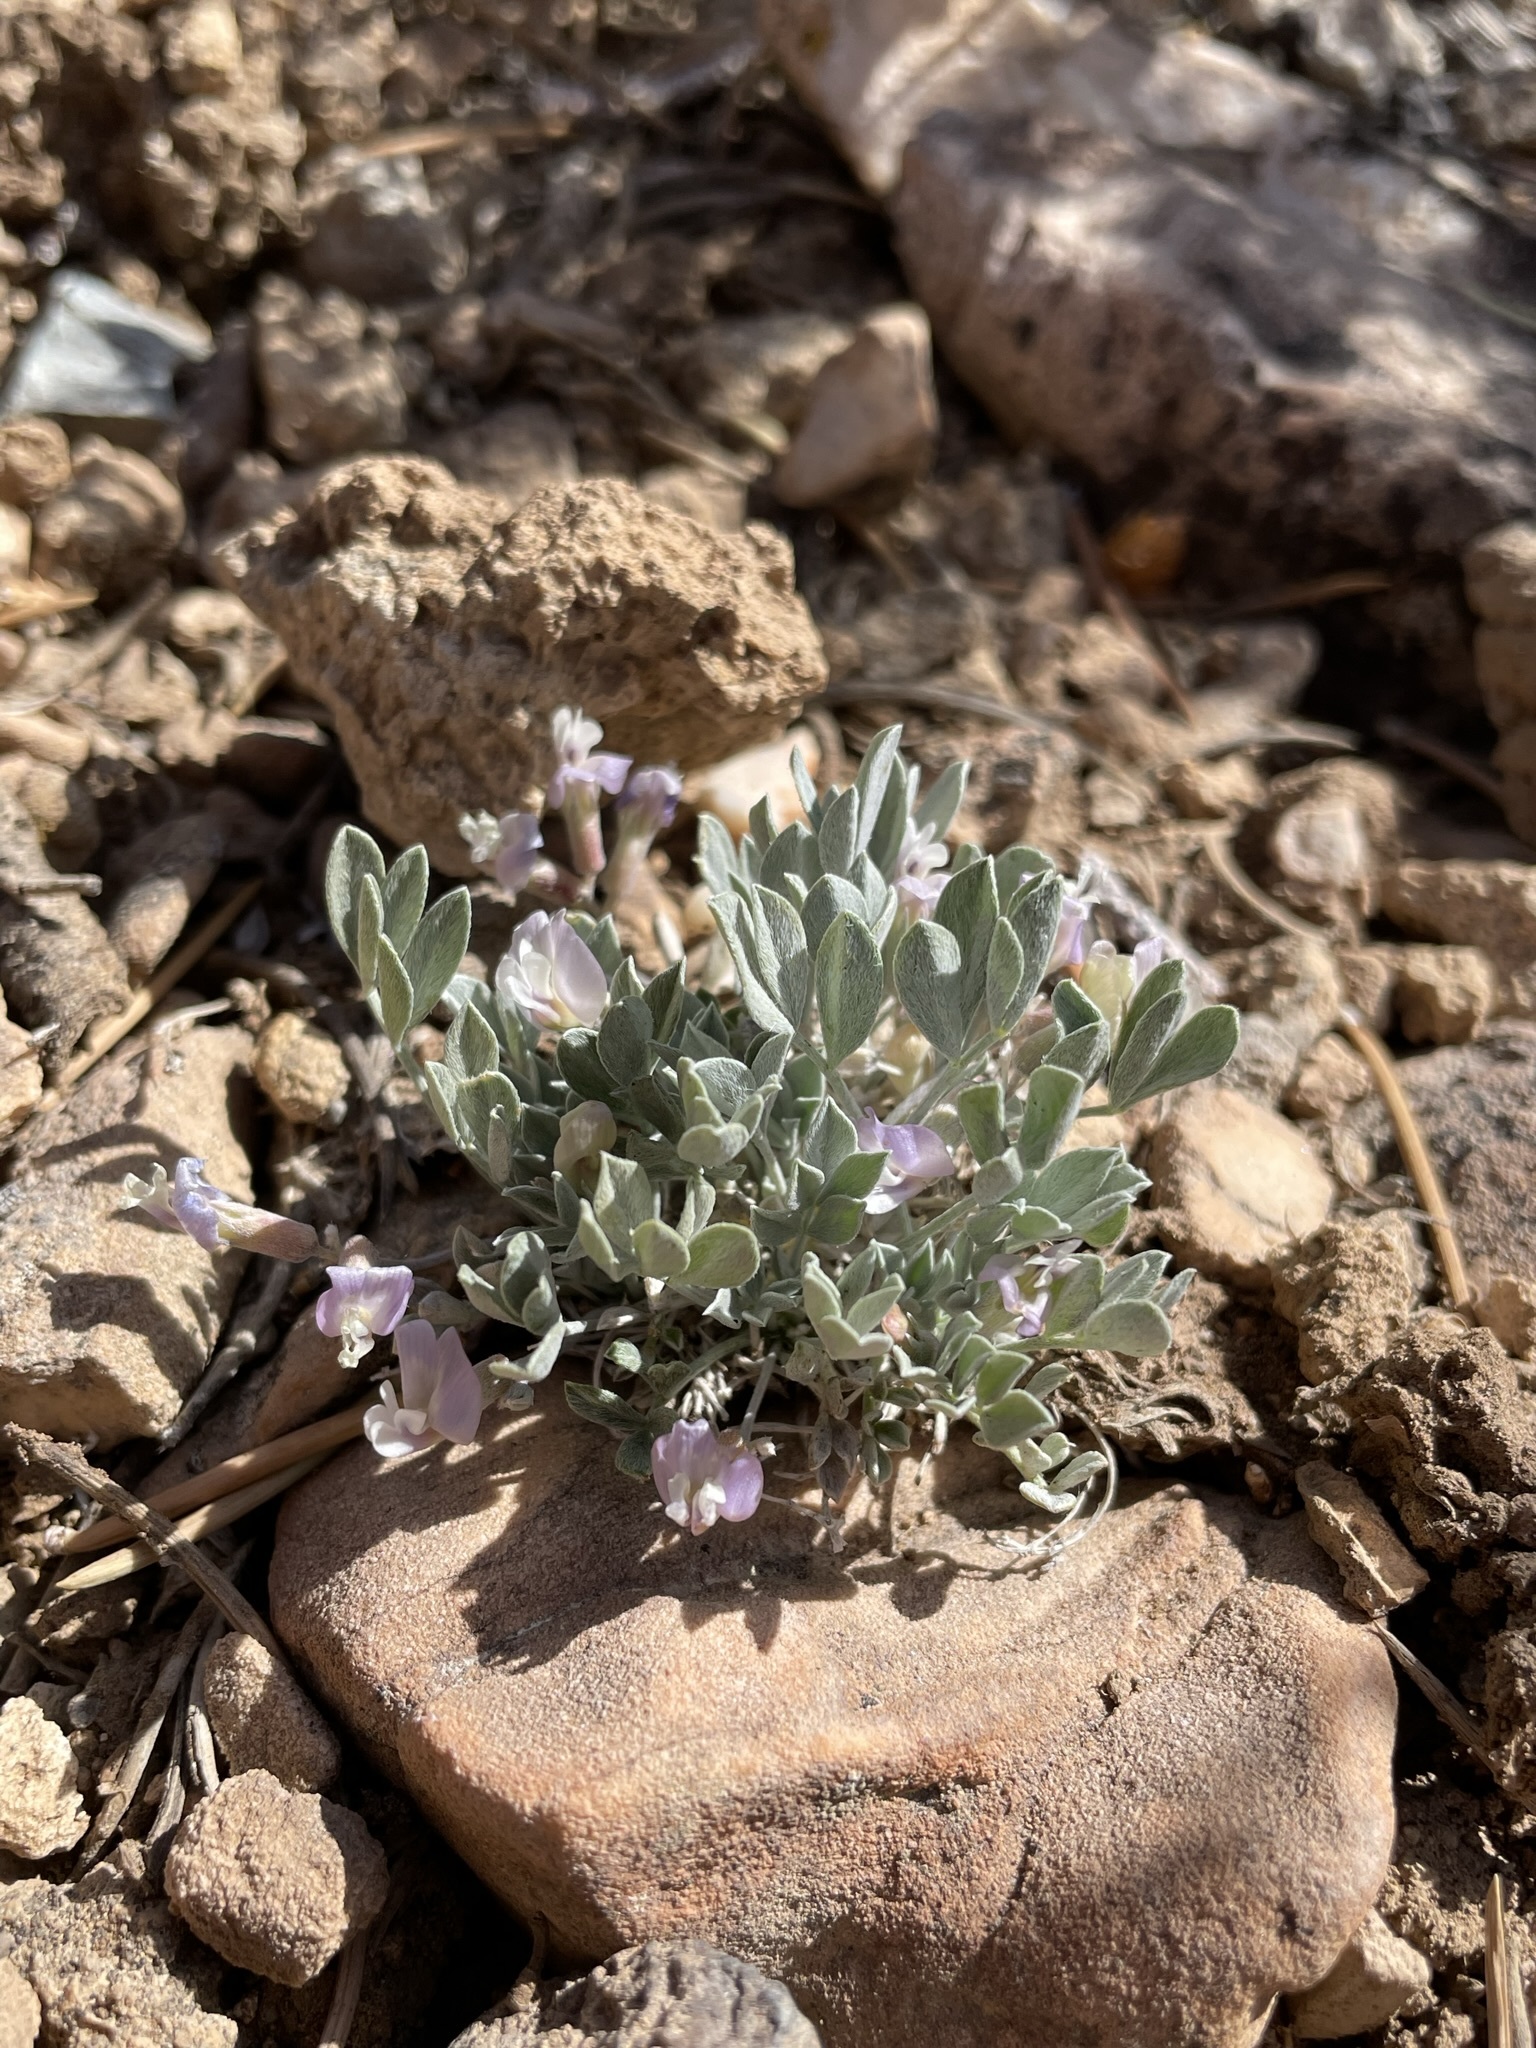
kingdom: Plantae
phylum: Tracheophyta
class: Magnoliopsida
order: Fabales
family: Fabaceae
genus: Astragalus
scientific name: Astragalus calycosus
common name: King's milkvetch
